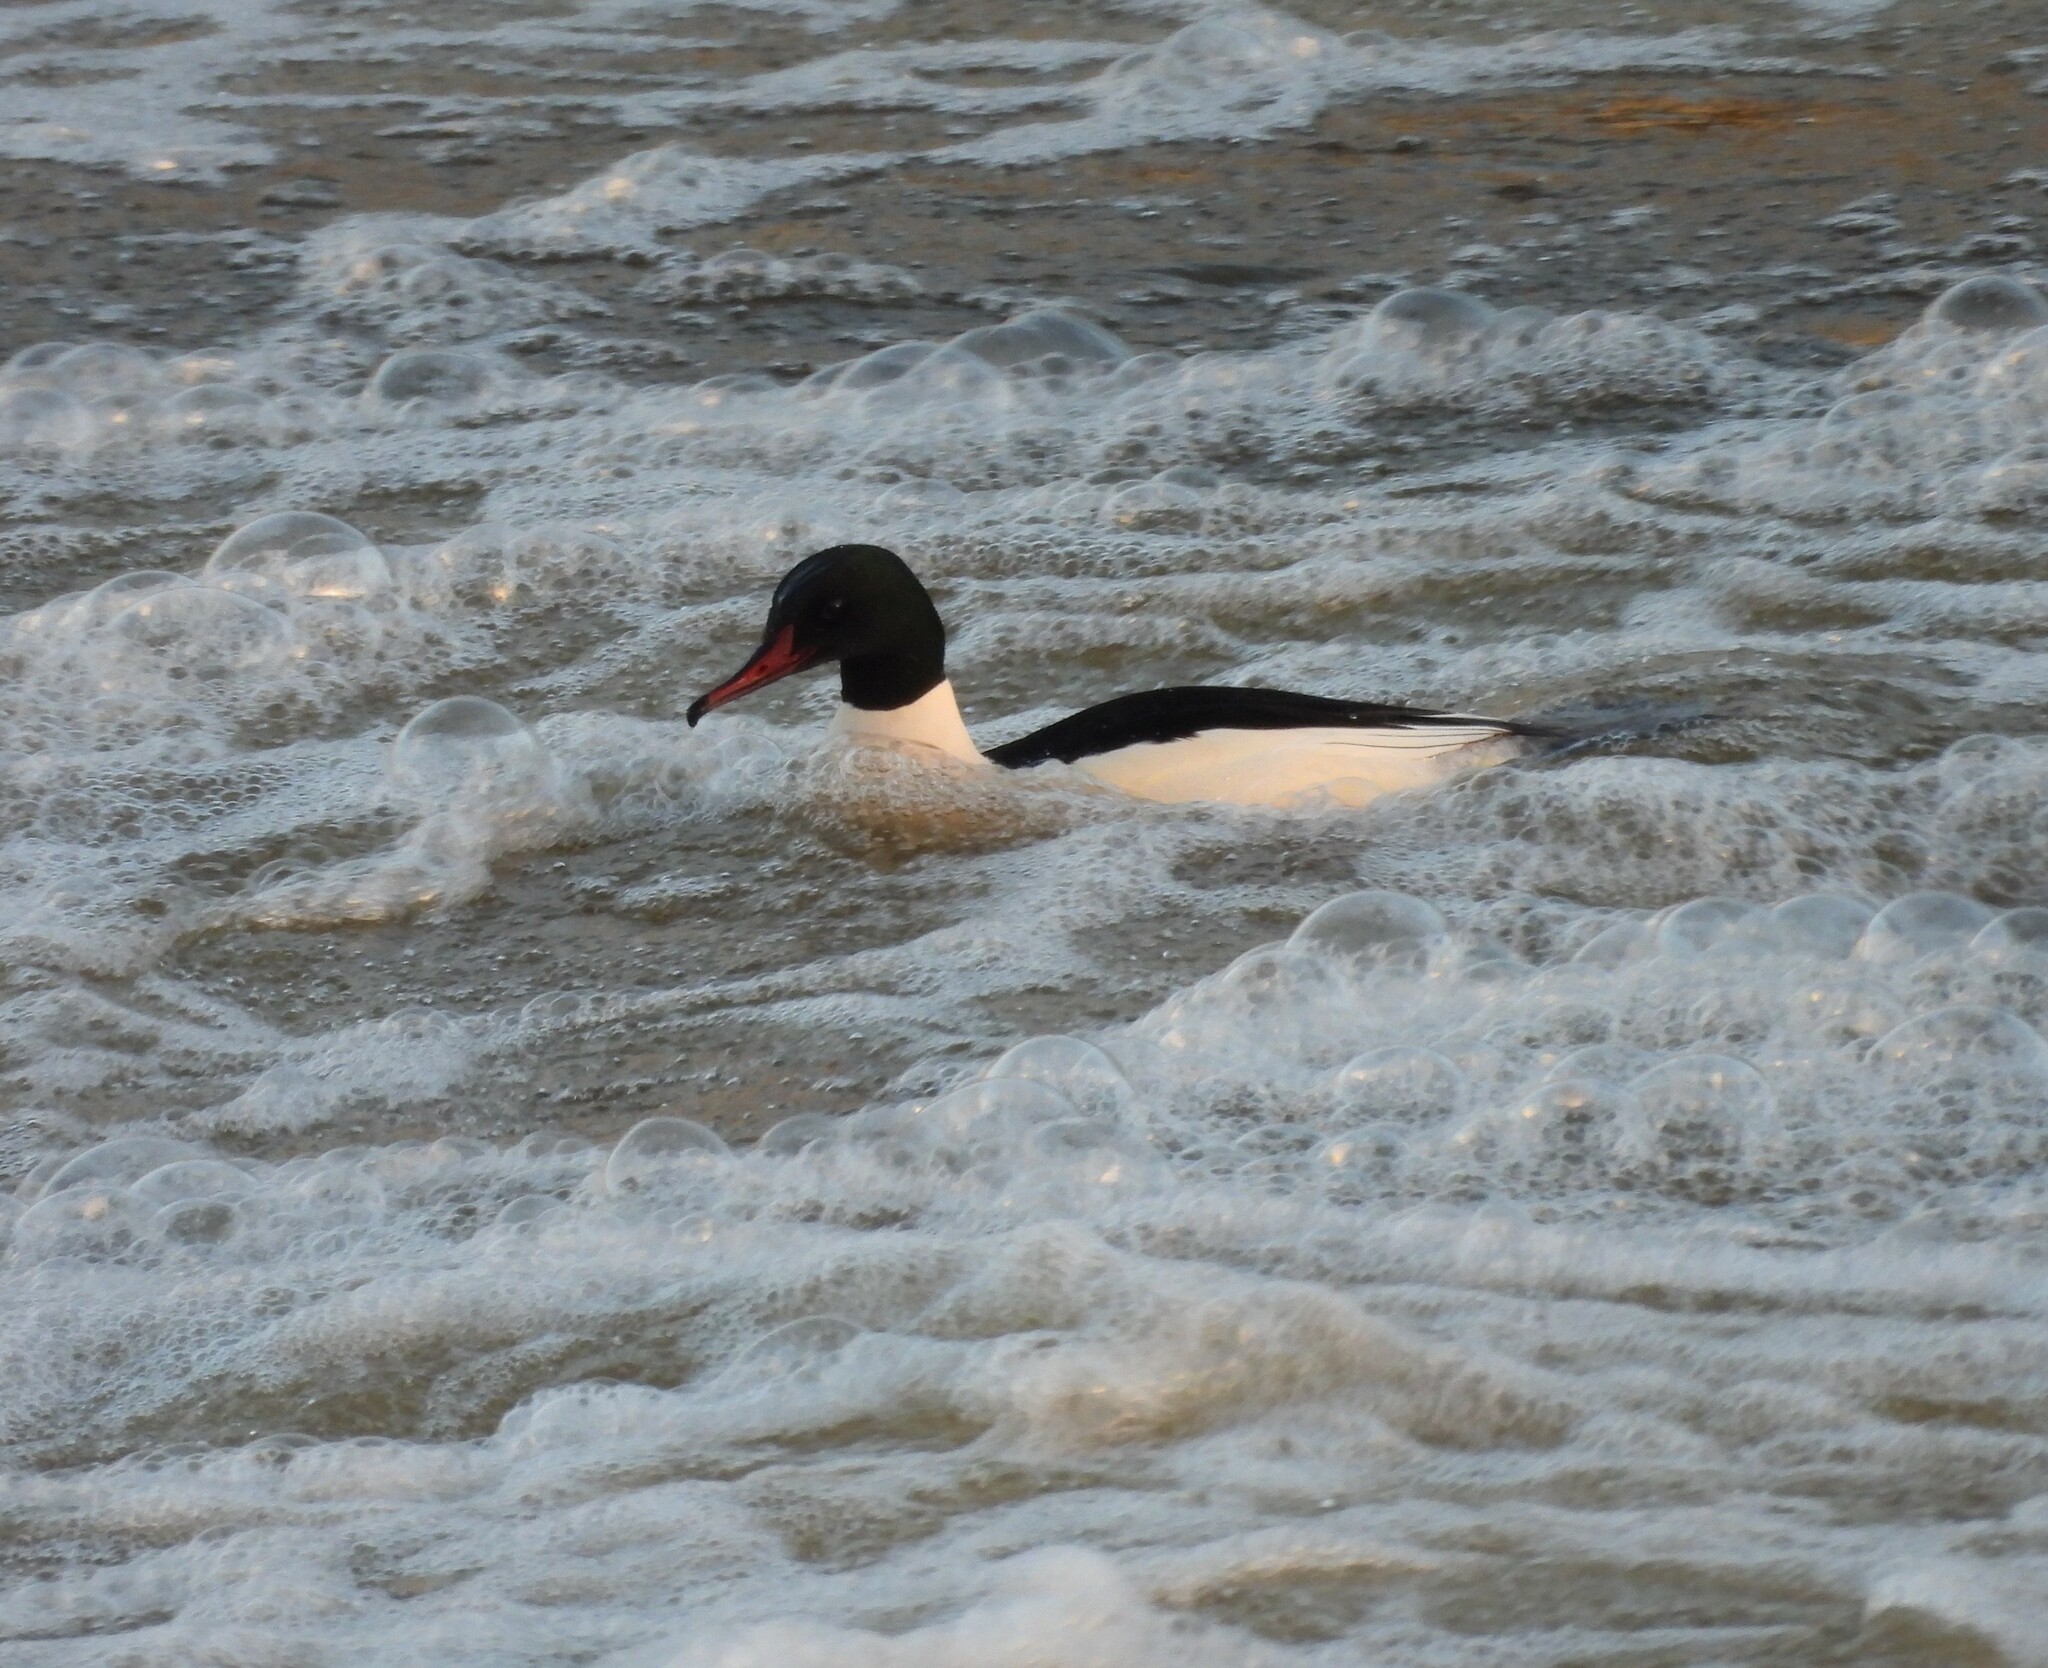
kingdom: Animalia
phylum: Chordata
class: Aves
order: Anseriformes
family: Anatidae
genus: Mergus
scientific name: Mergus merganser
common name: Common merganser
